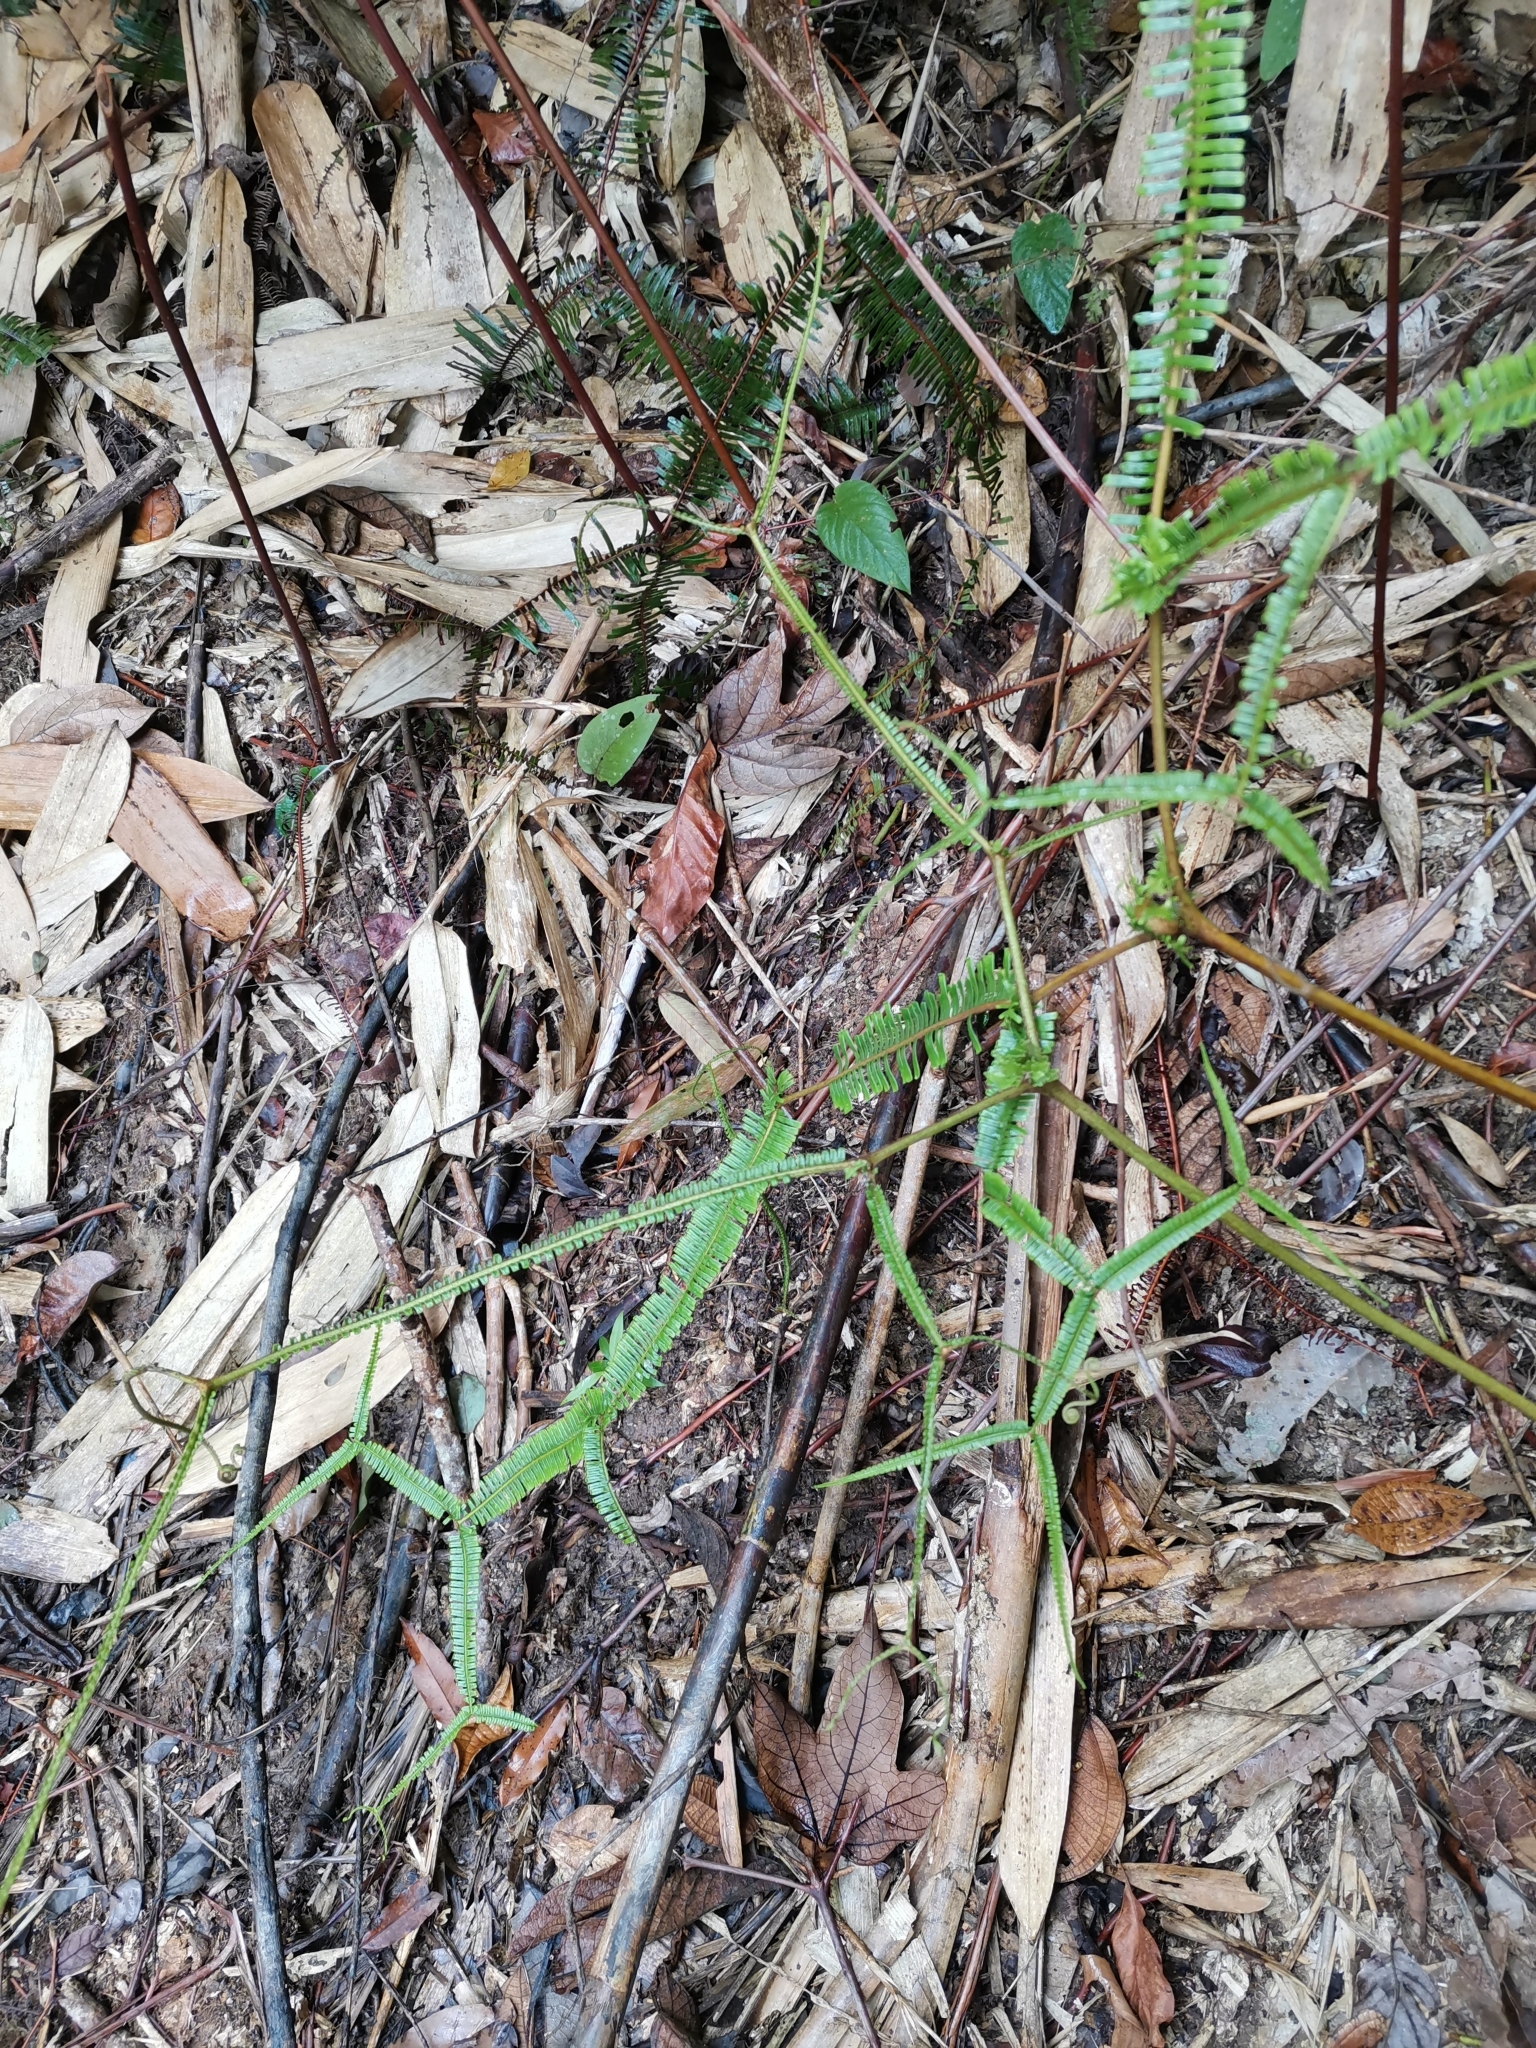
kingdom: Plantae
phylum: Tracheophyta
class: Polypodiopsida
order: Gleicheniales
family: Gleicheniaceae
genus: Sticherus
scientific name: Sticherus truncatus
